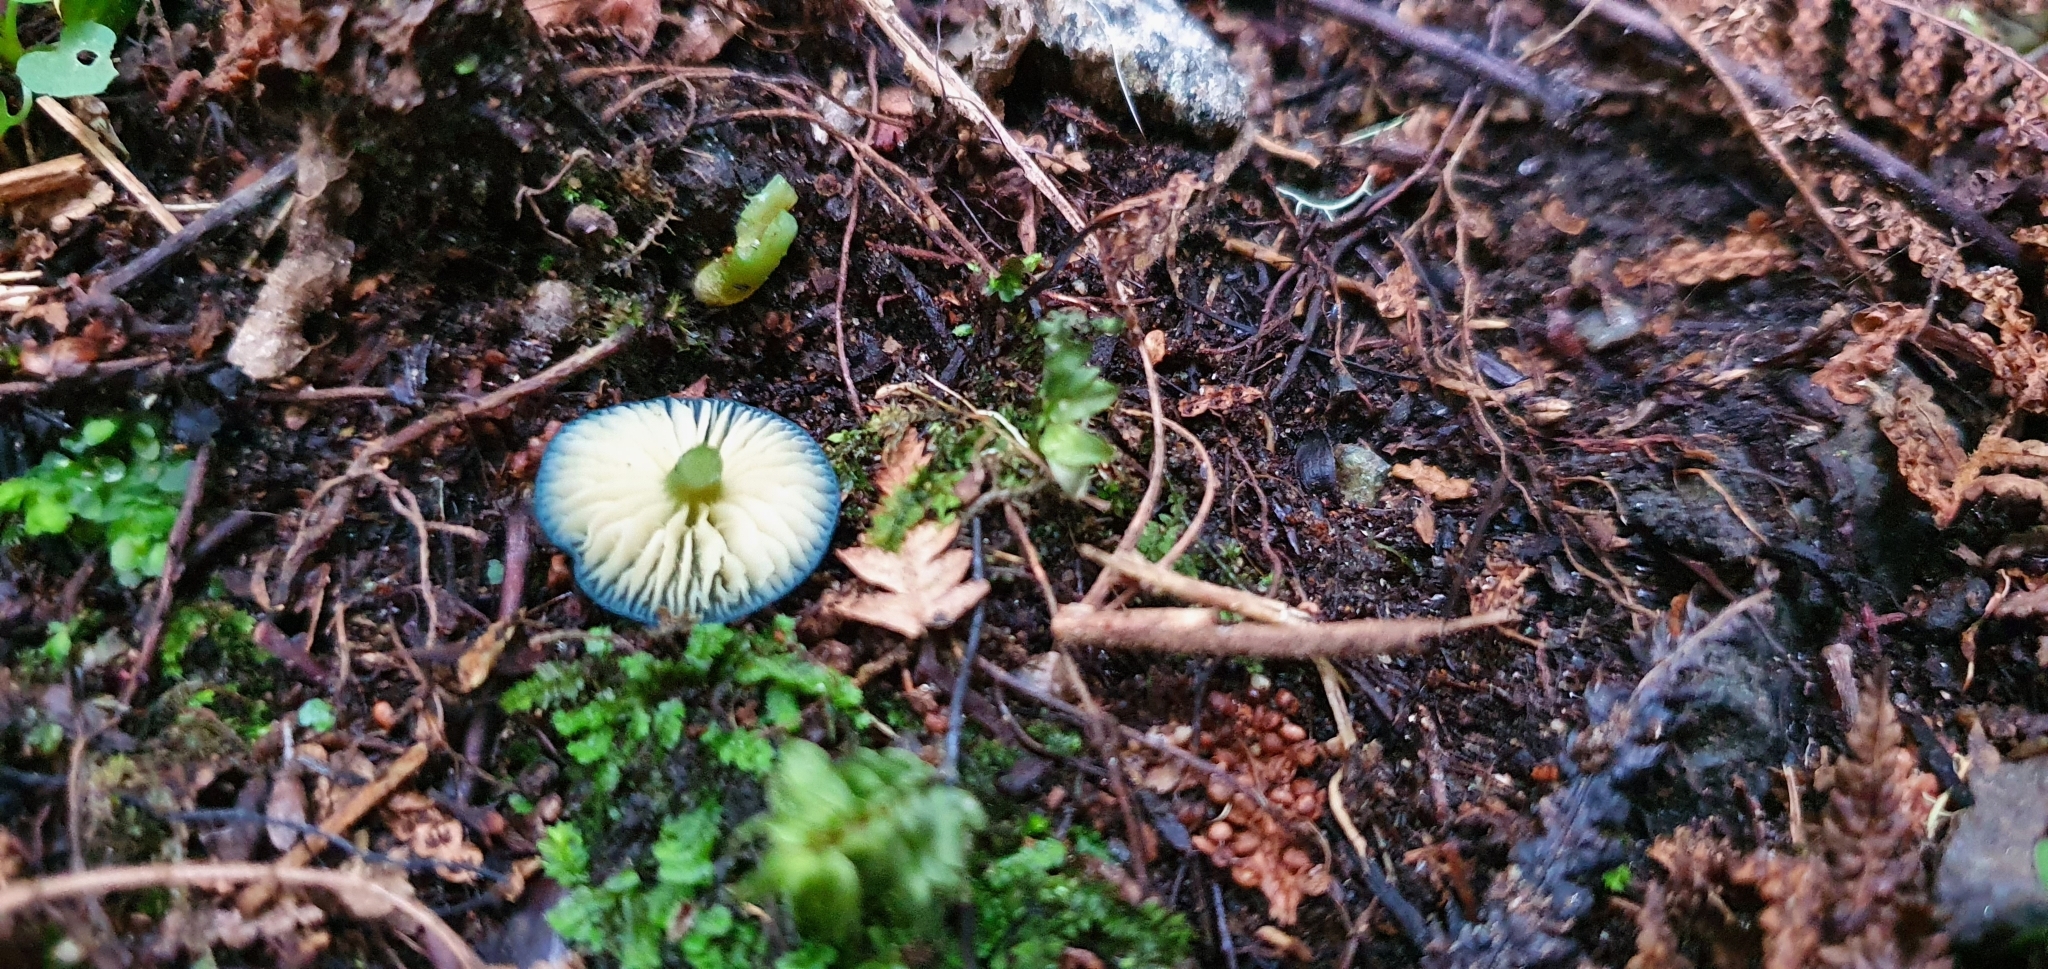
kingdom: Fungi
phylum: Basidiomycota
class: Agaricomycetes
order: Agaricales
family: Entolomataceae
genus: Entoloma
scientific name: Entoloma viridomarginatum
